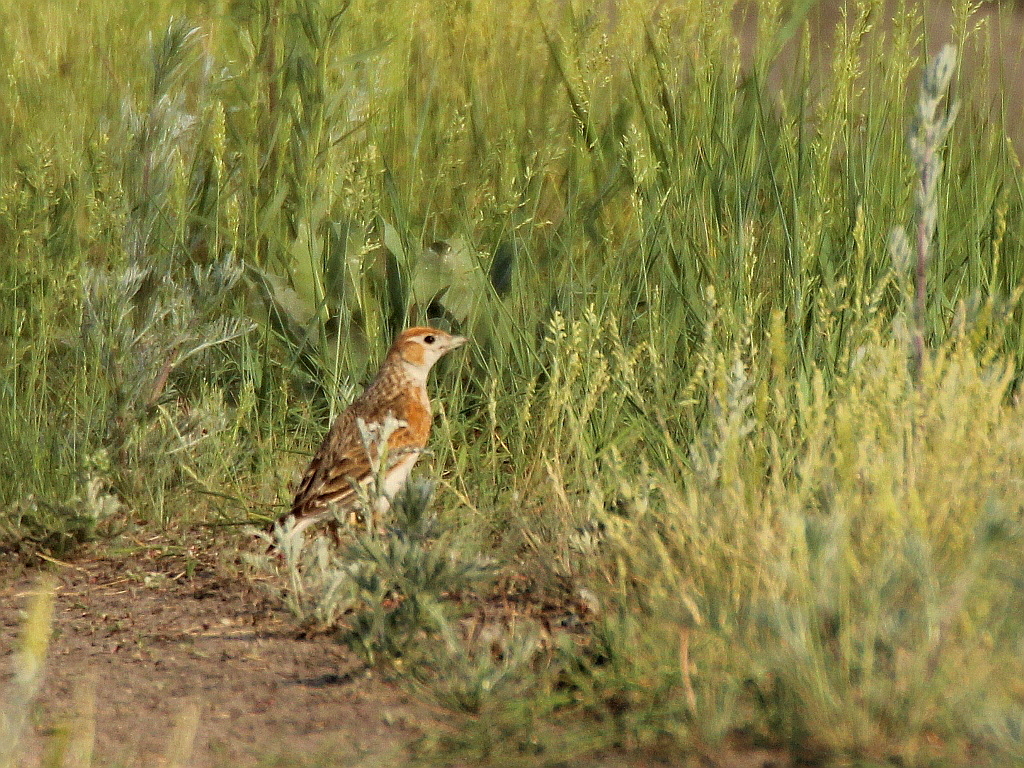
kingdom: Animalia
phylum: Chordata
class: Aves
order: Passeriformes
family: Alaudidae
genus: Melanocorypha
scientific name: Melanocorypha leucoptera
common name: White-winged lark
